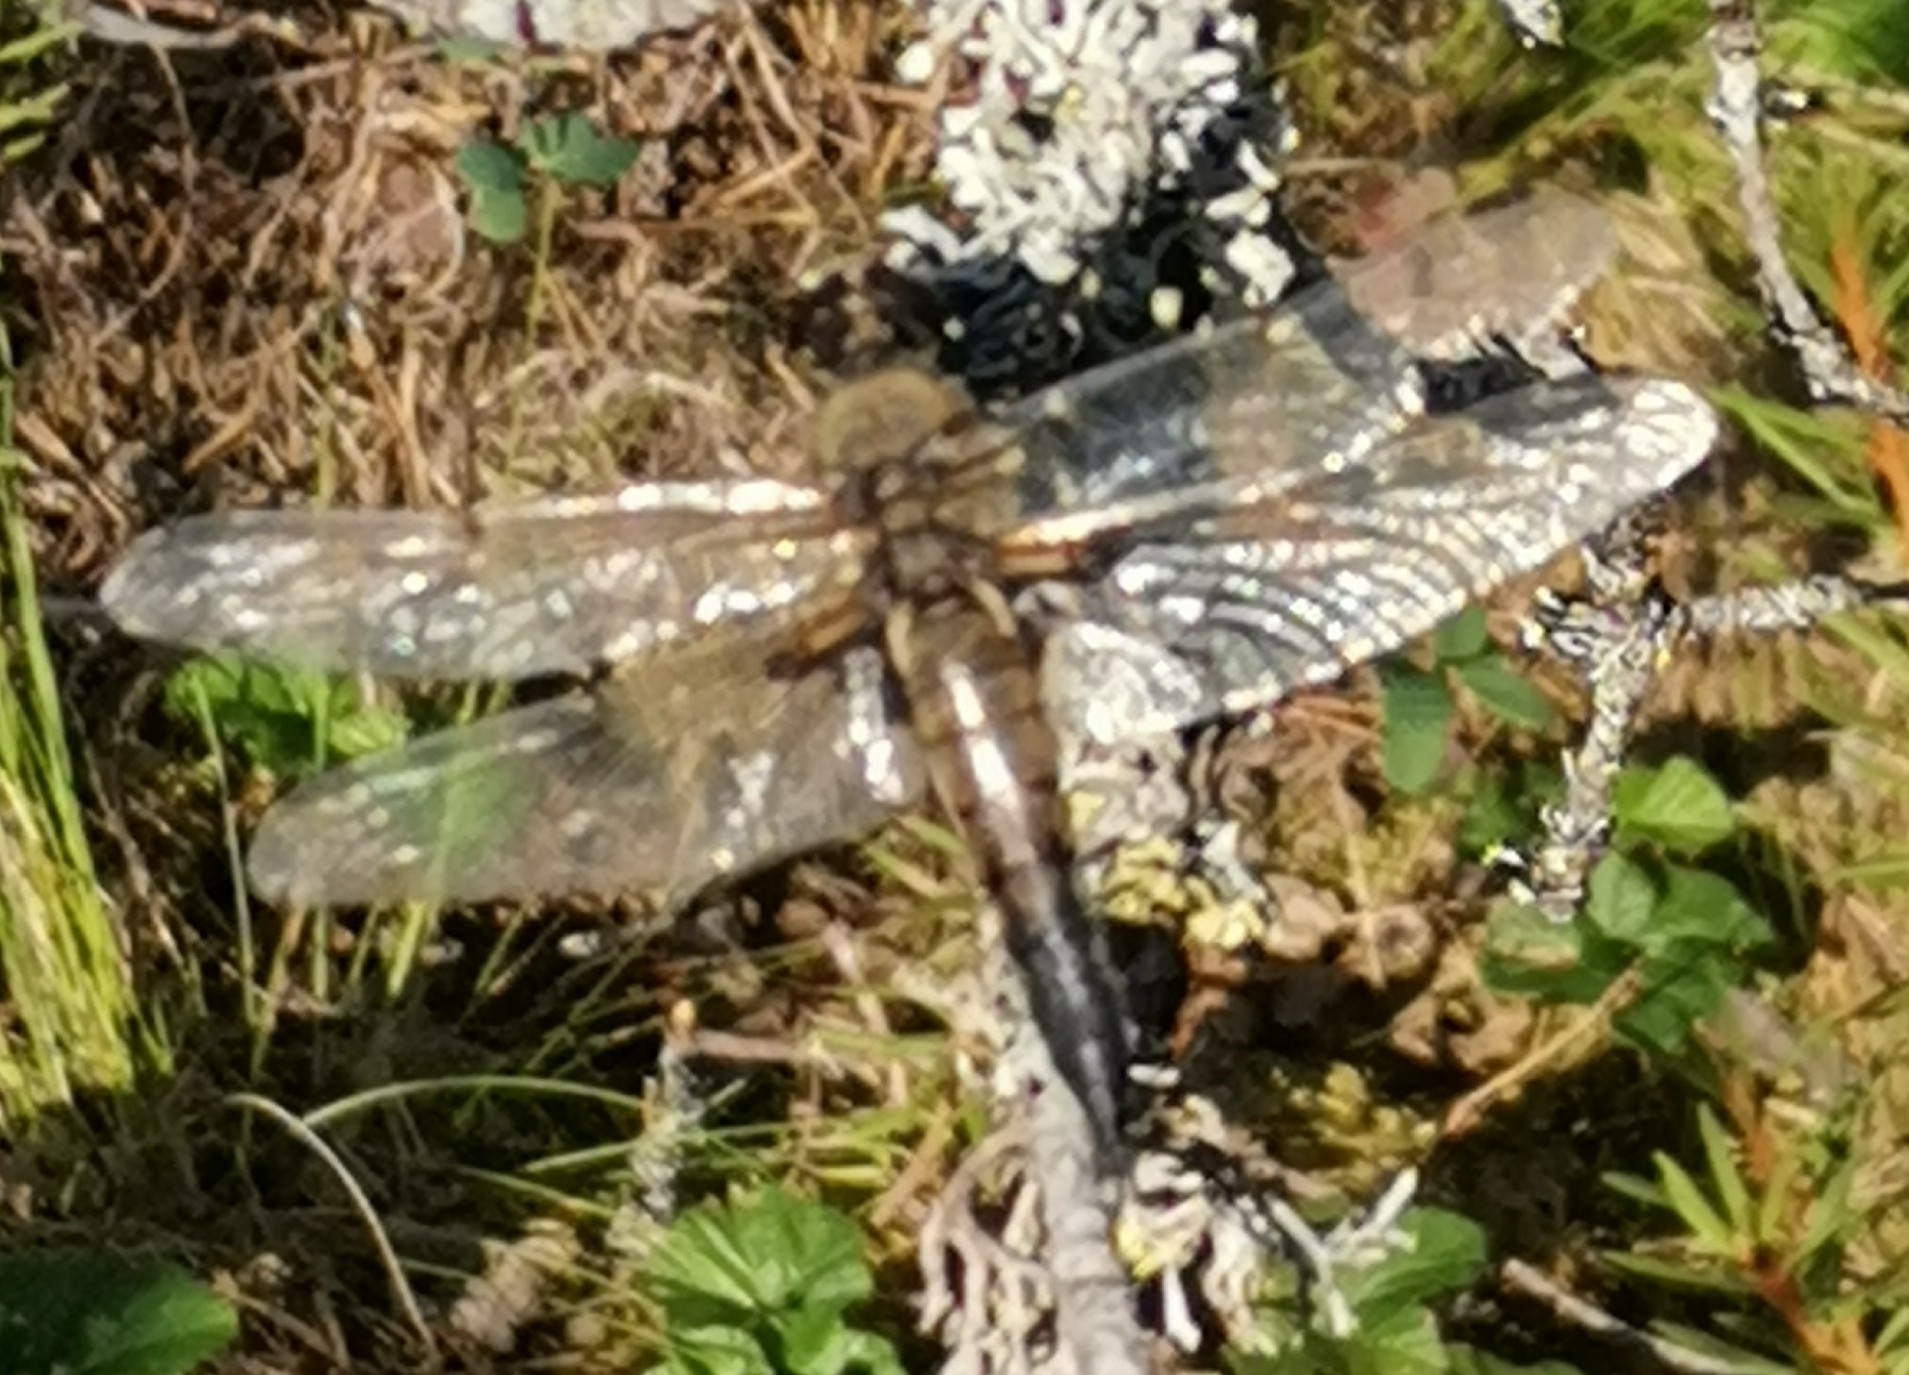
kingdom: Animalia
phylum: Arthropoda
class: Insecta
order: Odonata
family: Libellulidae
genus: Libellula
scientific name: Libellula quadrimaculata
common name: Four-spotted chaser
